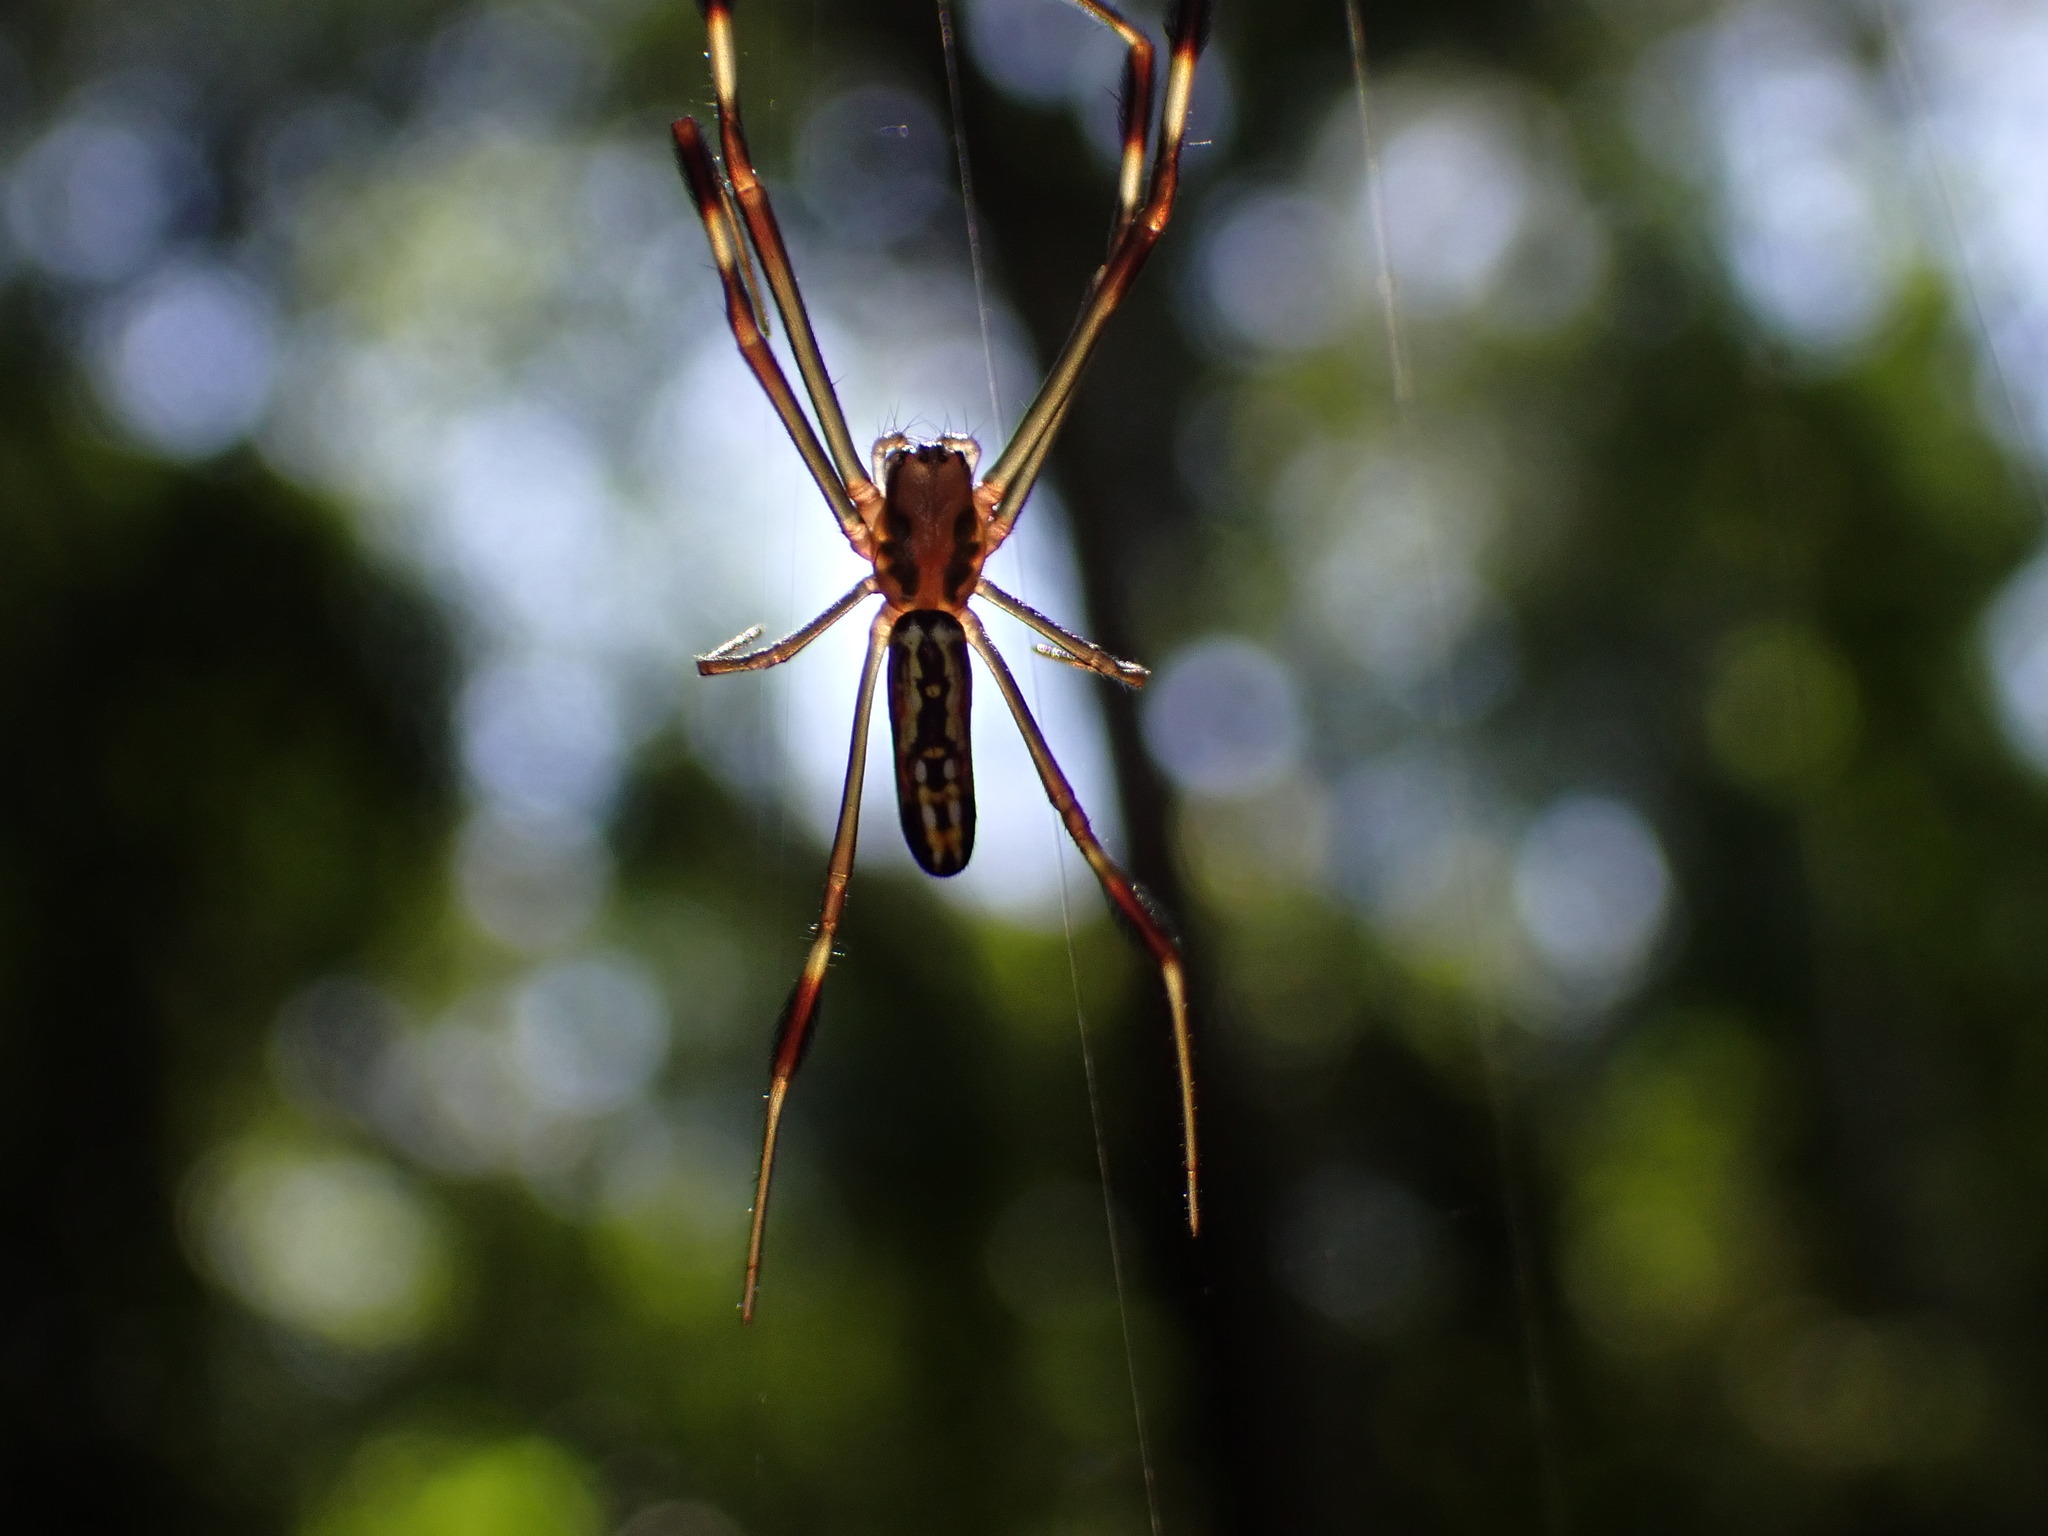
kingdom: Animalia
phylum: Arthropoda
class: Arachnida
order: Araneae
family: Araneidae
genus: Trichonephila
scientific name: Trichonephila clavipes
